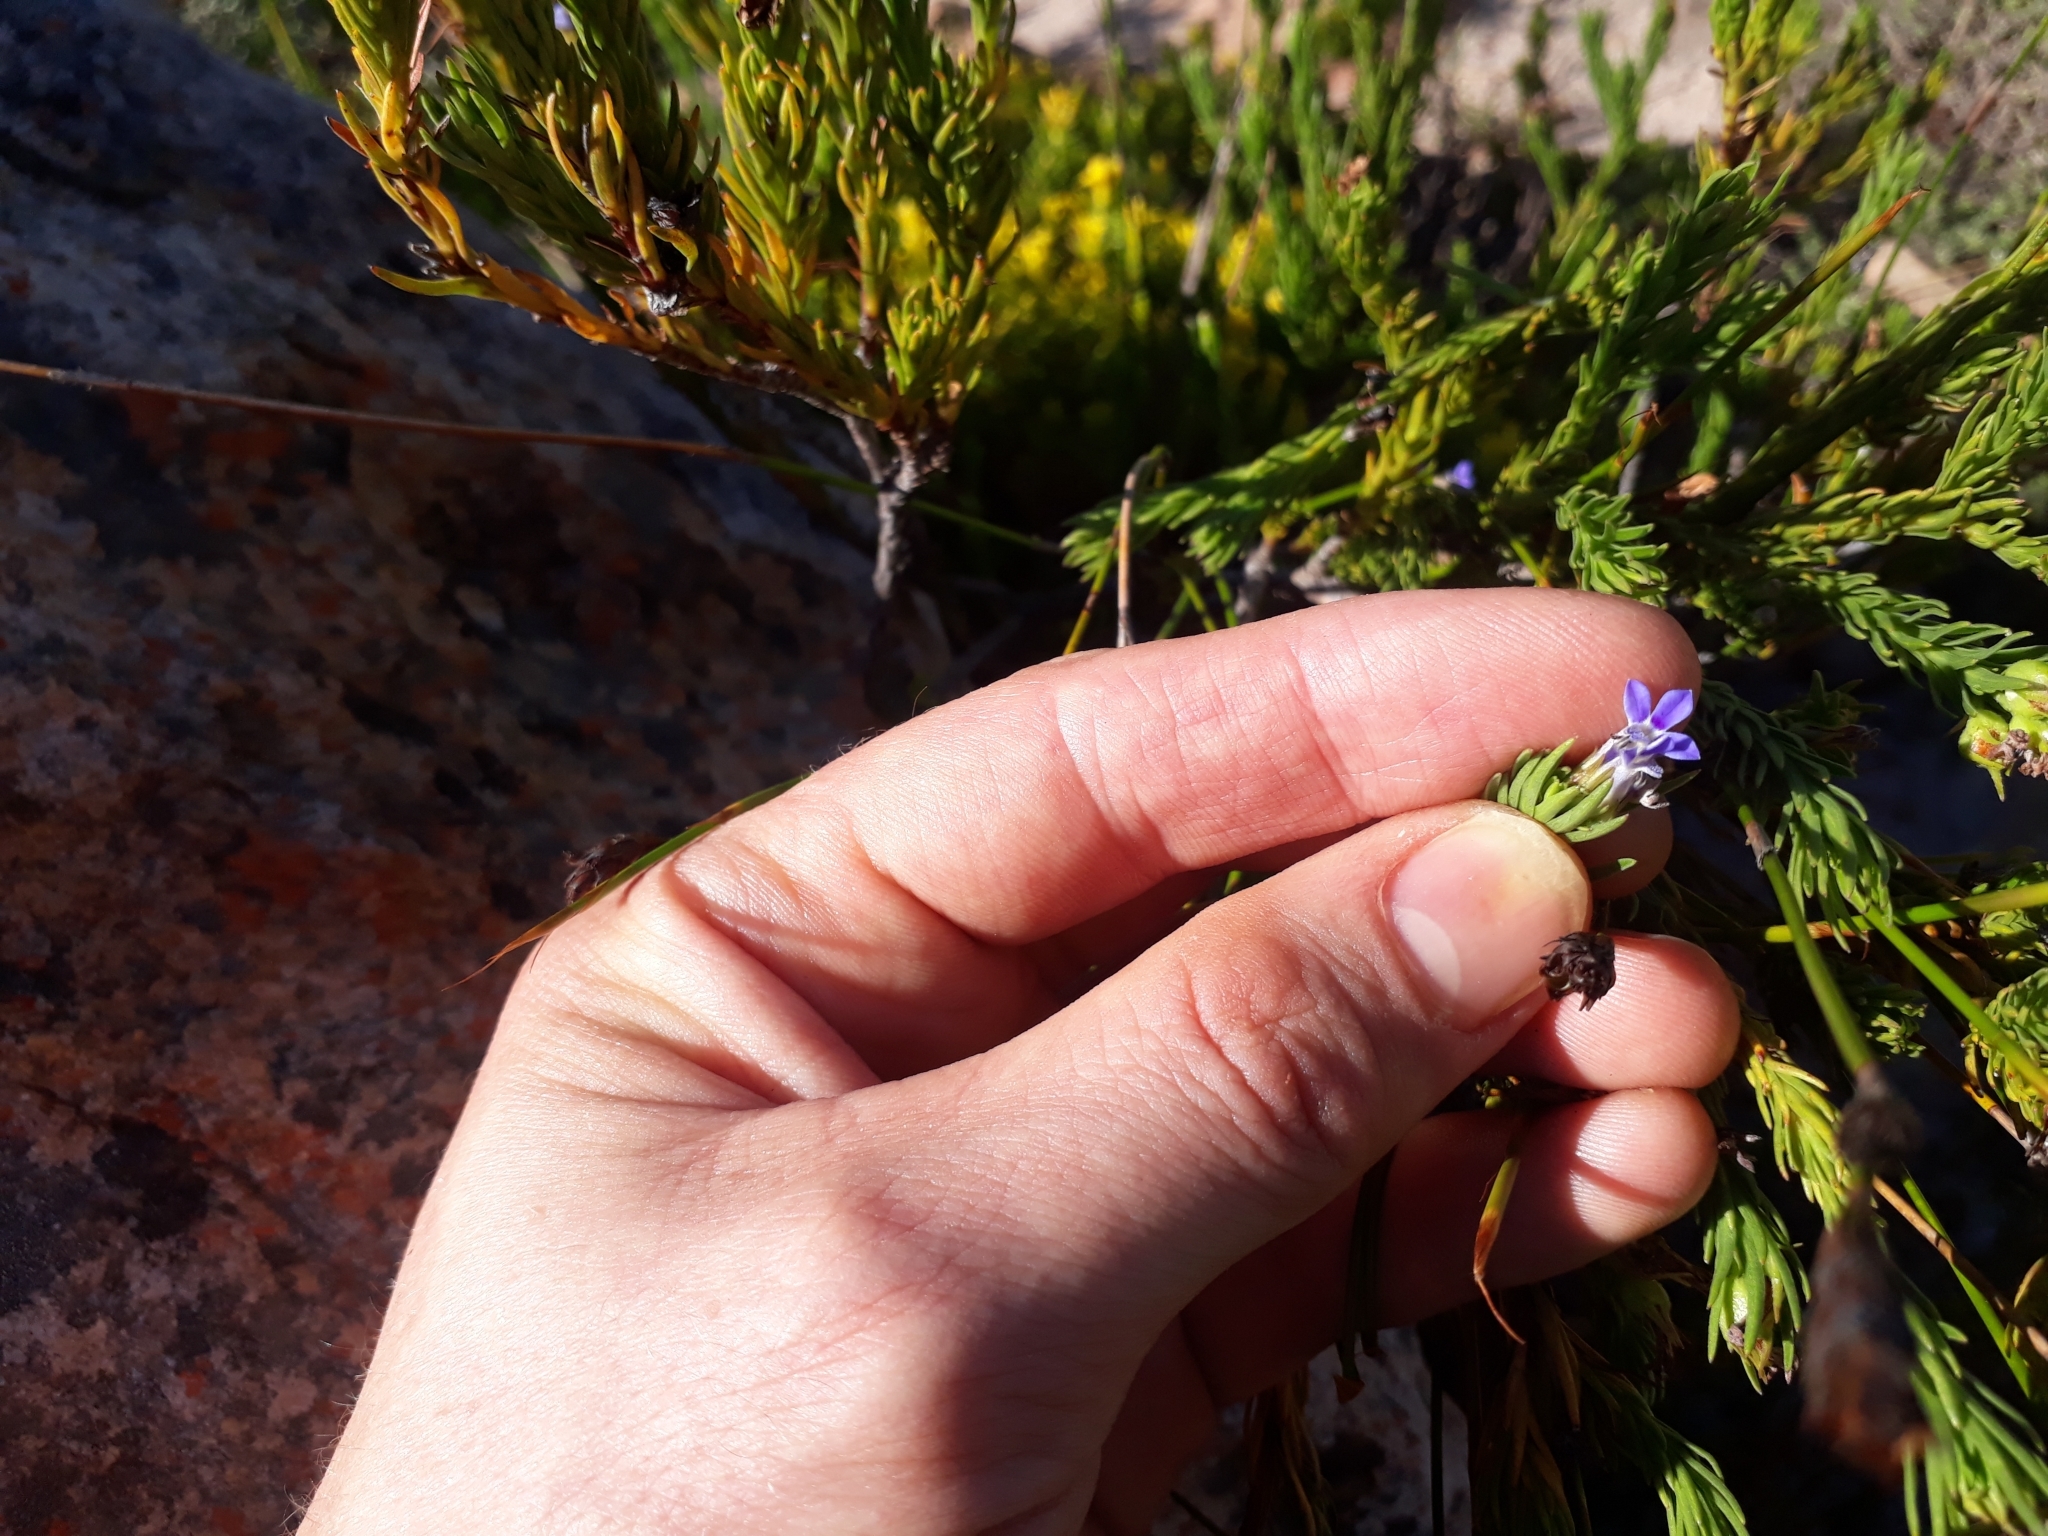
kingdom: Plantae
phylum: Tracheophyta
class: Magnoliopsida
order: Asterales
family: Campanulaceae
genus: Lobelia
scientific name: Lobelia pinifolia
